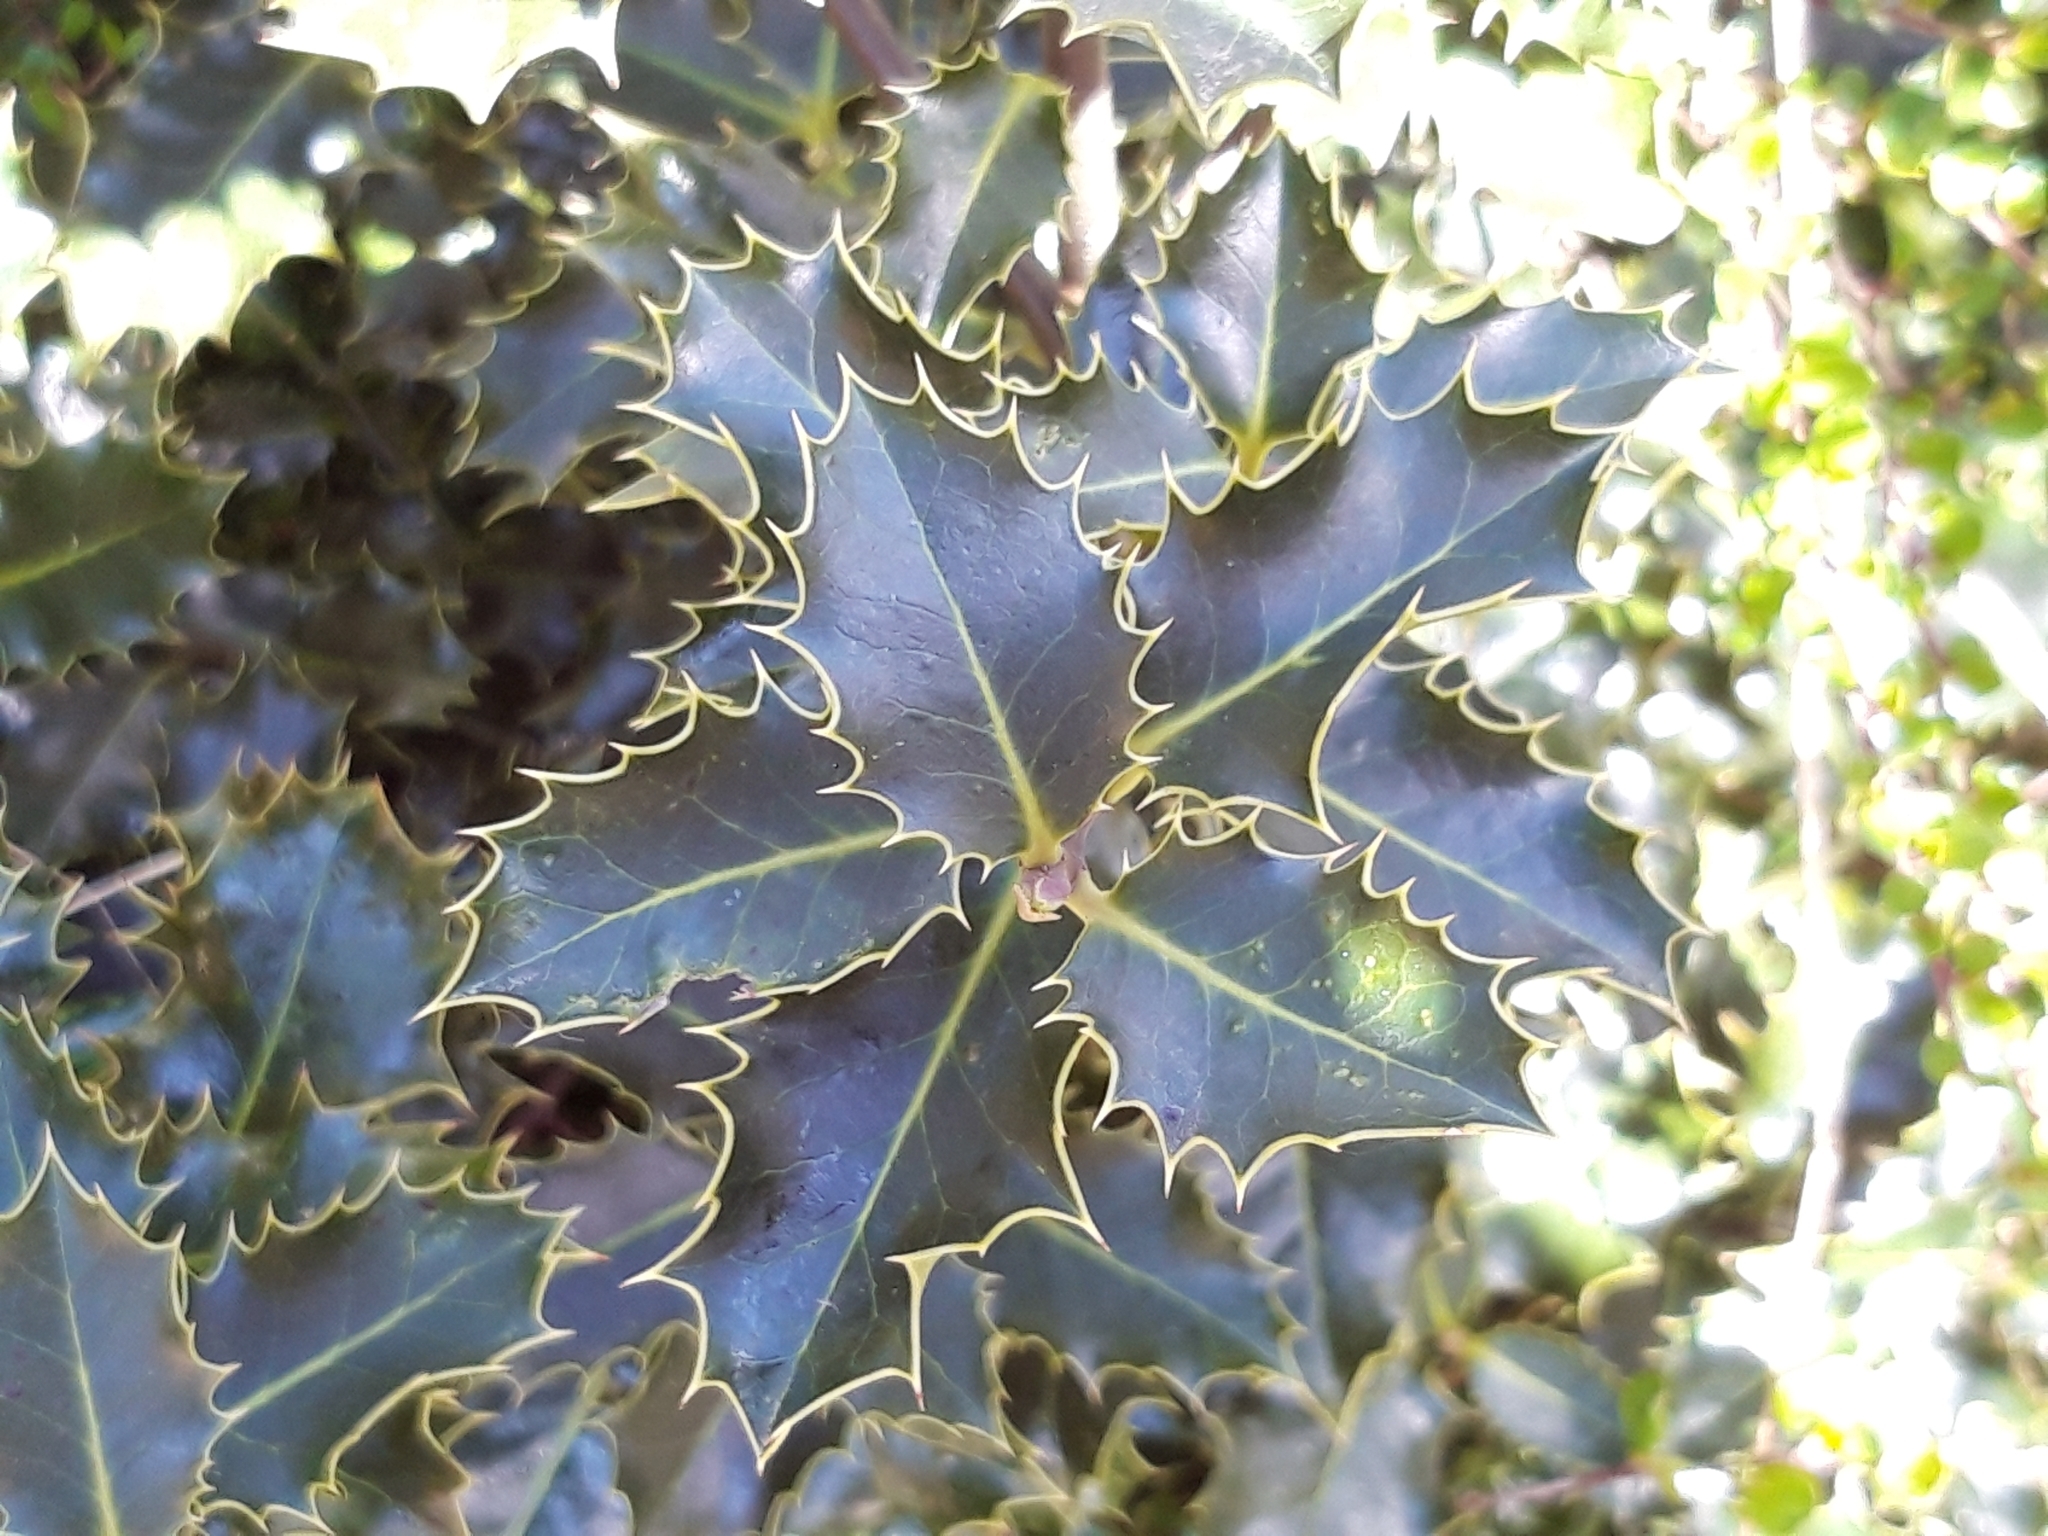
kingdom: Plantae
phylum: Tracheophyta
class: Magnoliopsida
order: Aquifoliales
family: Aquifoliaceae
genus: Ilex
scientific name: Ilex aquifolium
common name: English holly
